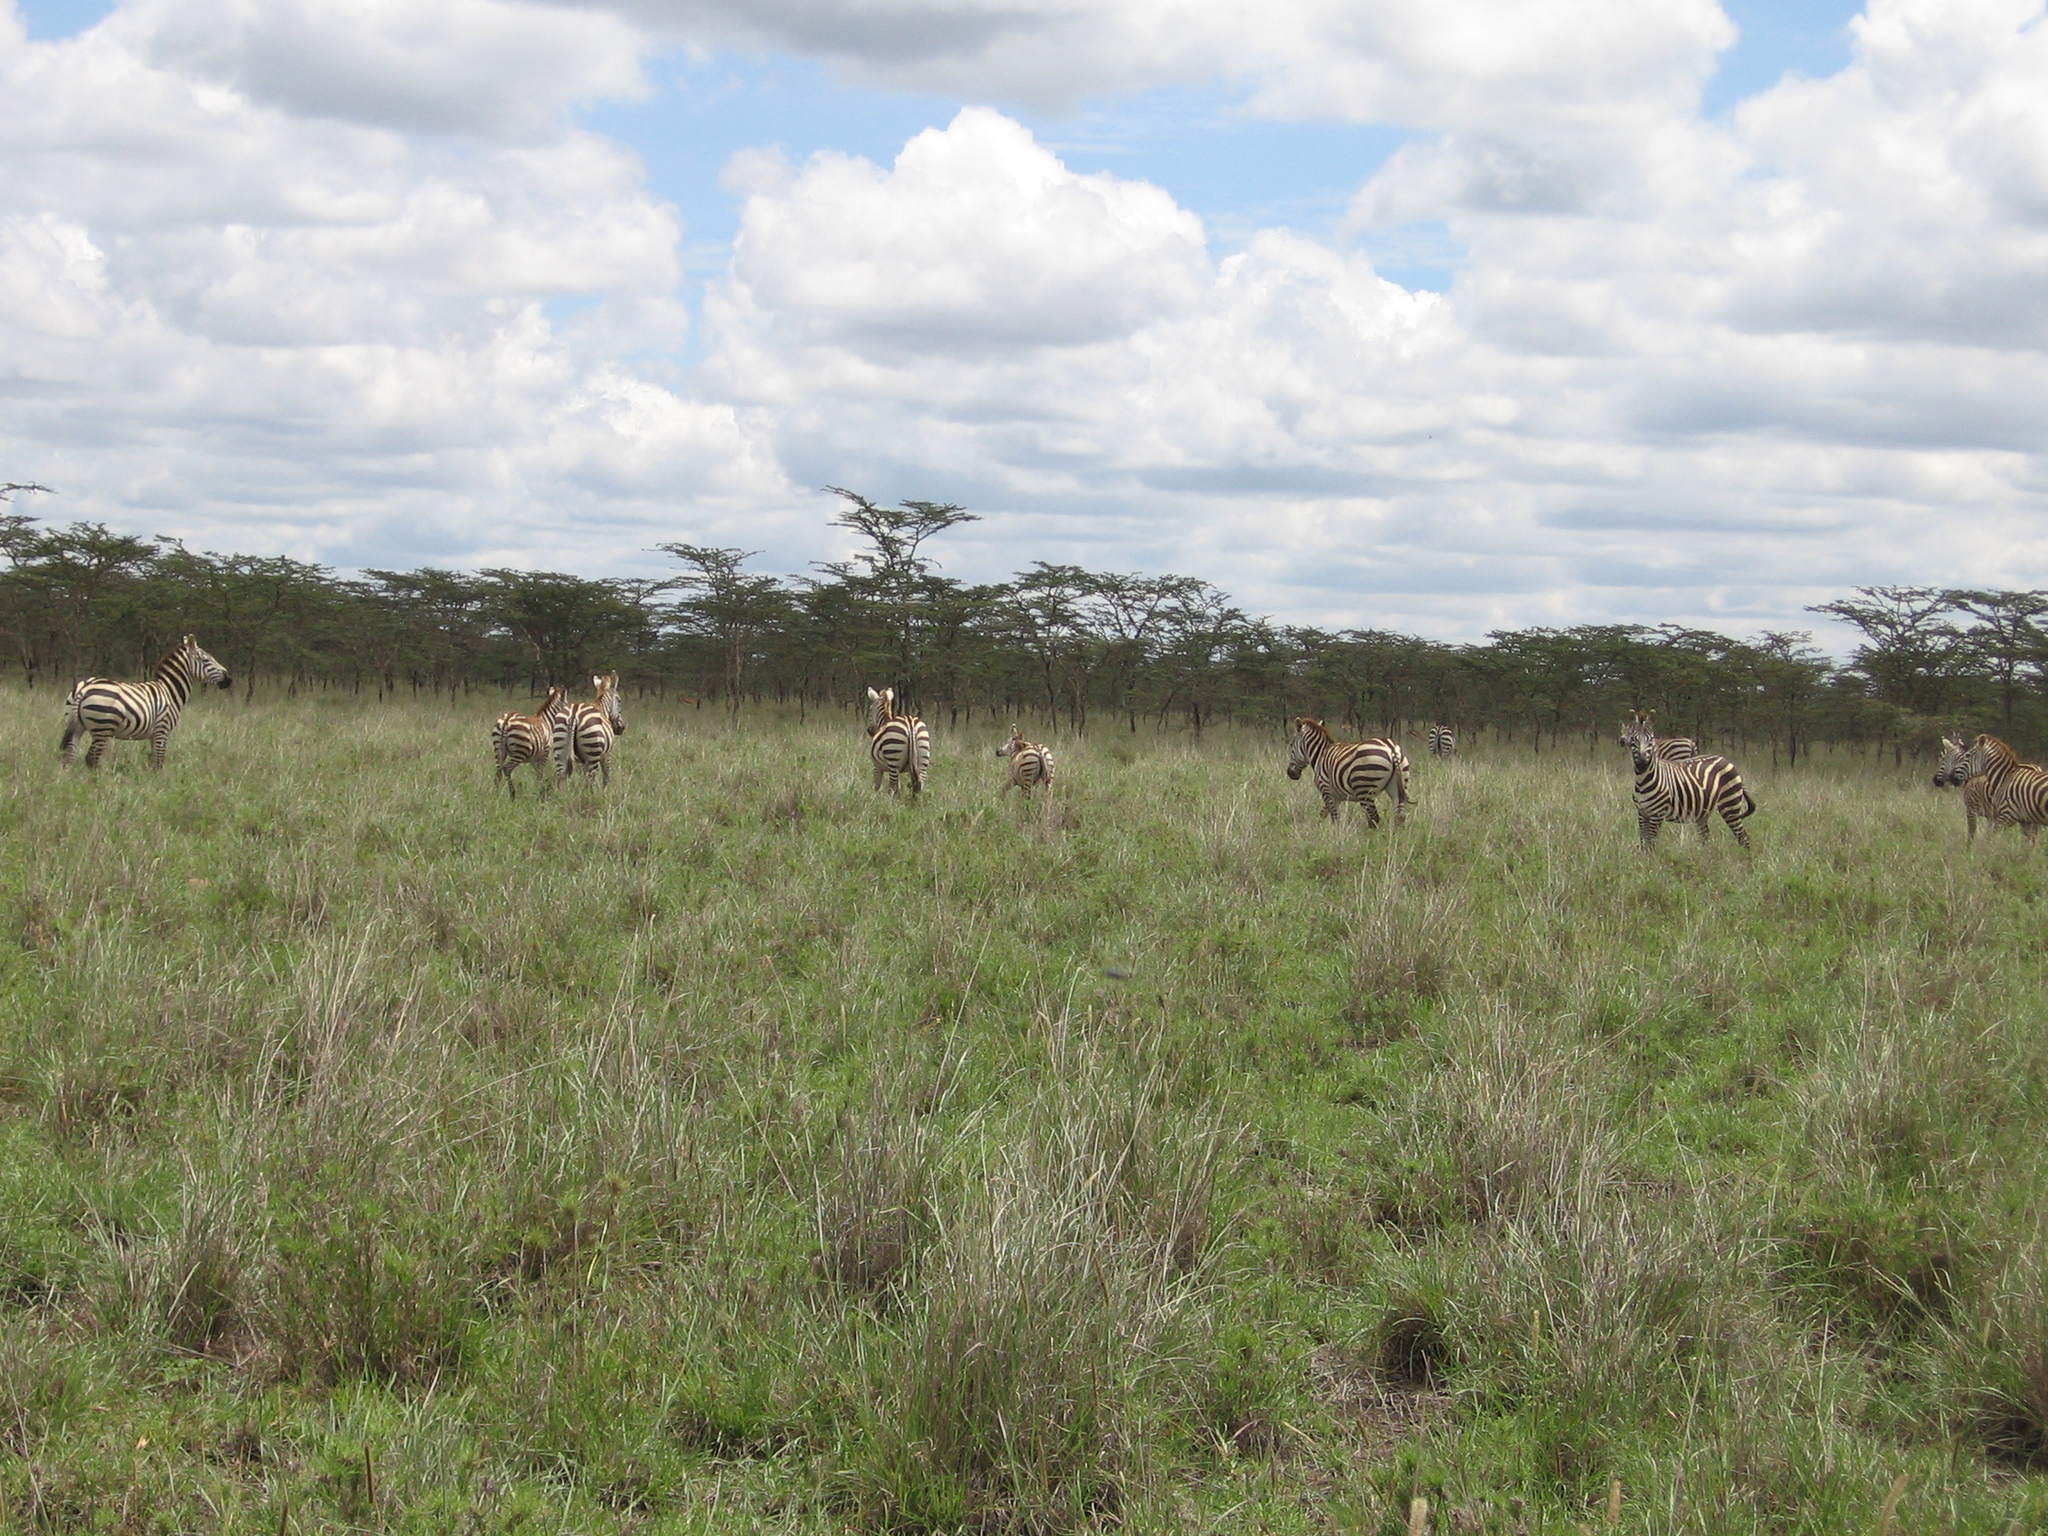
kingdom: Animalia
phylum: Chordata
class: Mammalia
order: Perissodactyla
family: Equidae
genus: Equus
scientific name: Equus quagga
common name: Plains zebra
